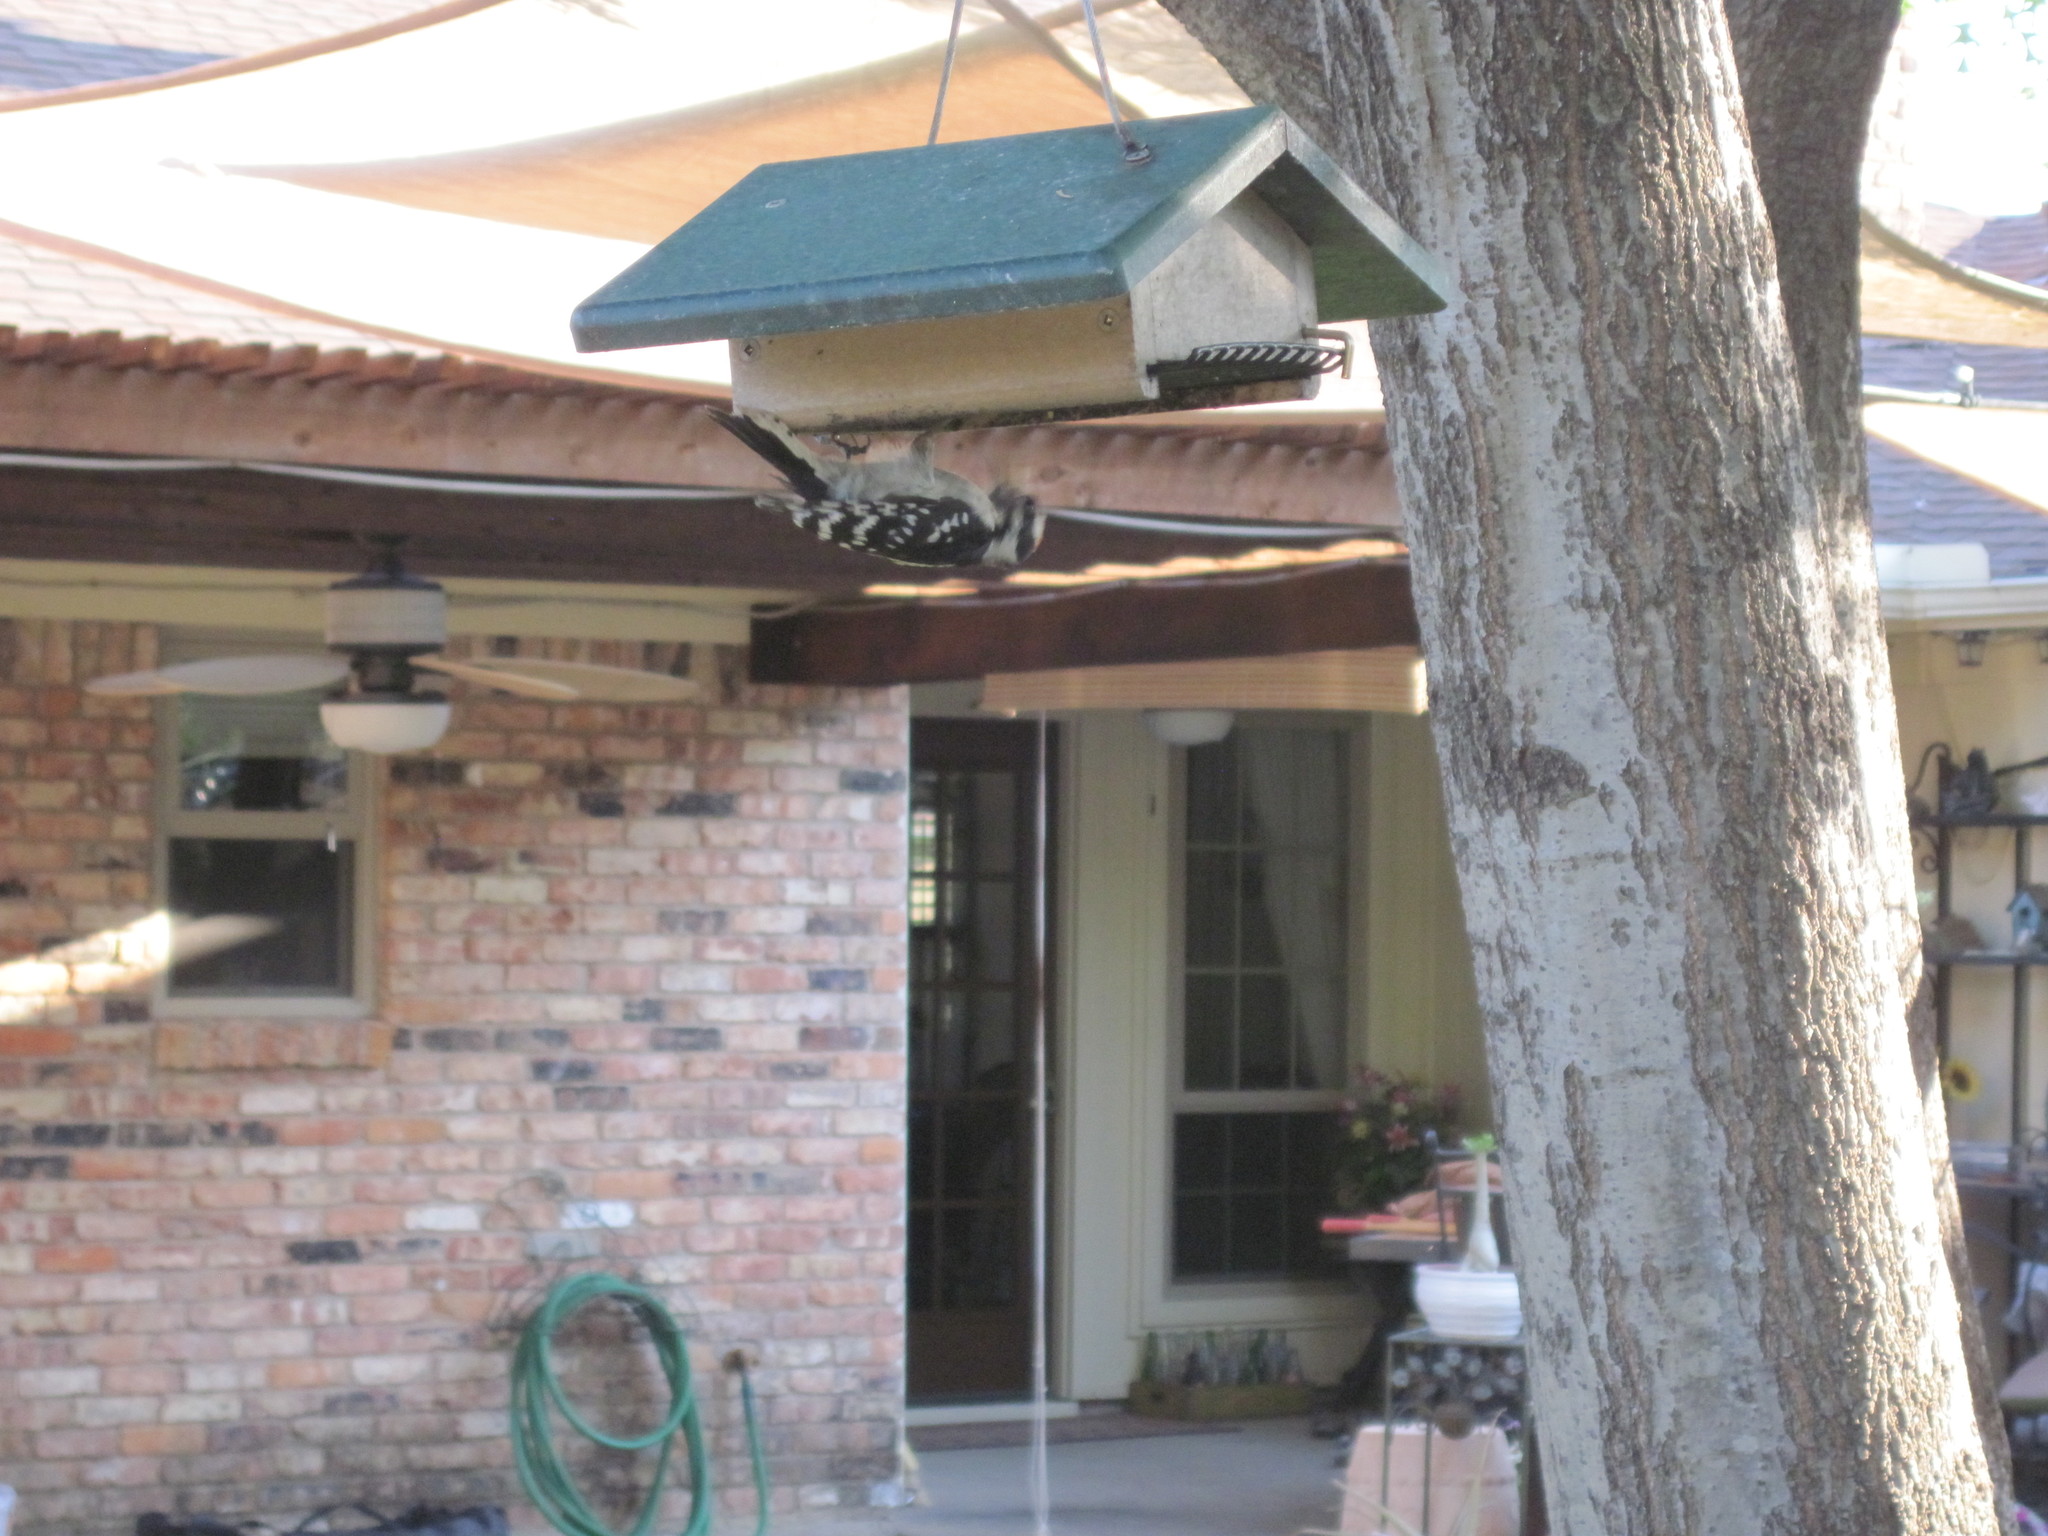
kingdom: Animalia
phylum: Chordata
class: Aves
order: Piciformes
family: Picidae
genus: Dryobates
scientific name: Dryobates pubescens
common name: Downy woodpecker
